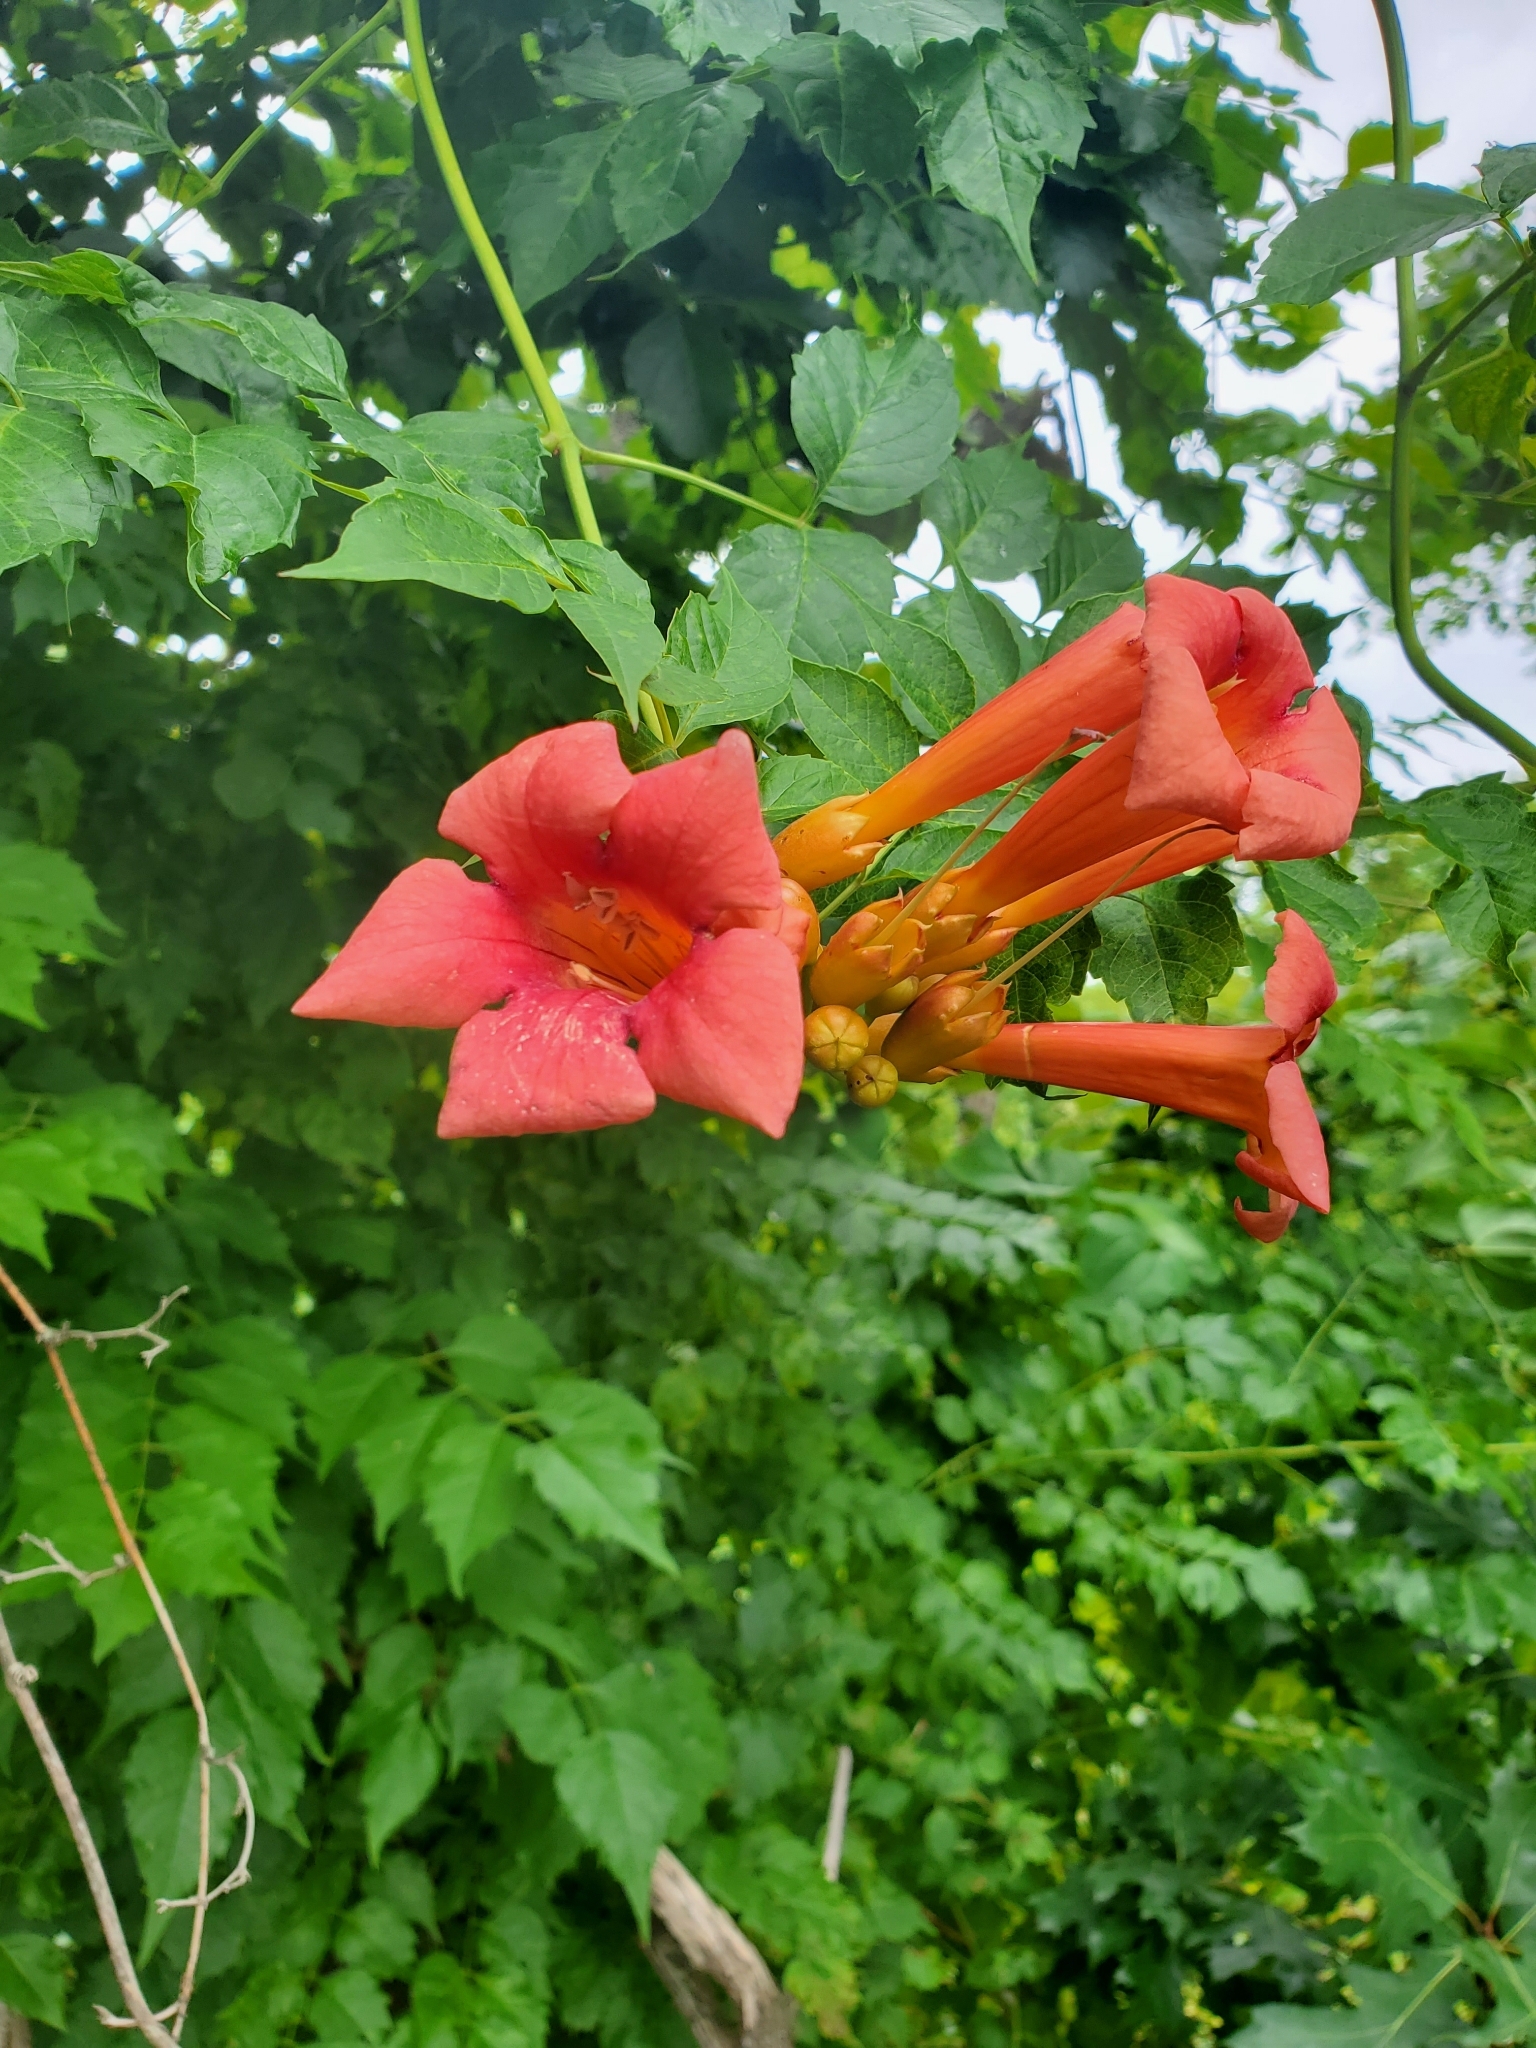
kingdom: Plantae
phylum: Tracheophyta
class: Magnoliopsida
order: Lamiales
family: Bignoniaceae
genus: Campsis
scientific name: Campsis radicans
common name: Trumpet-creeper
